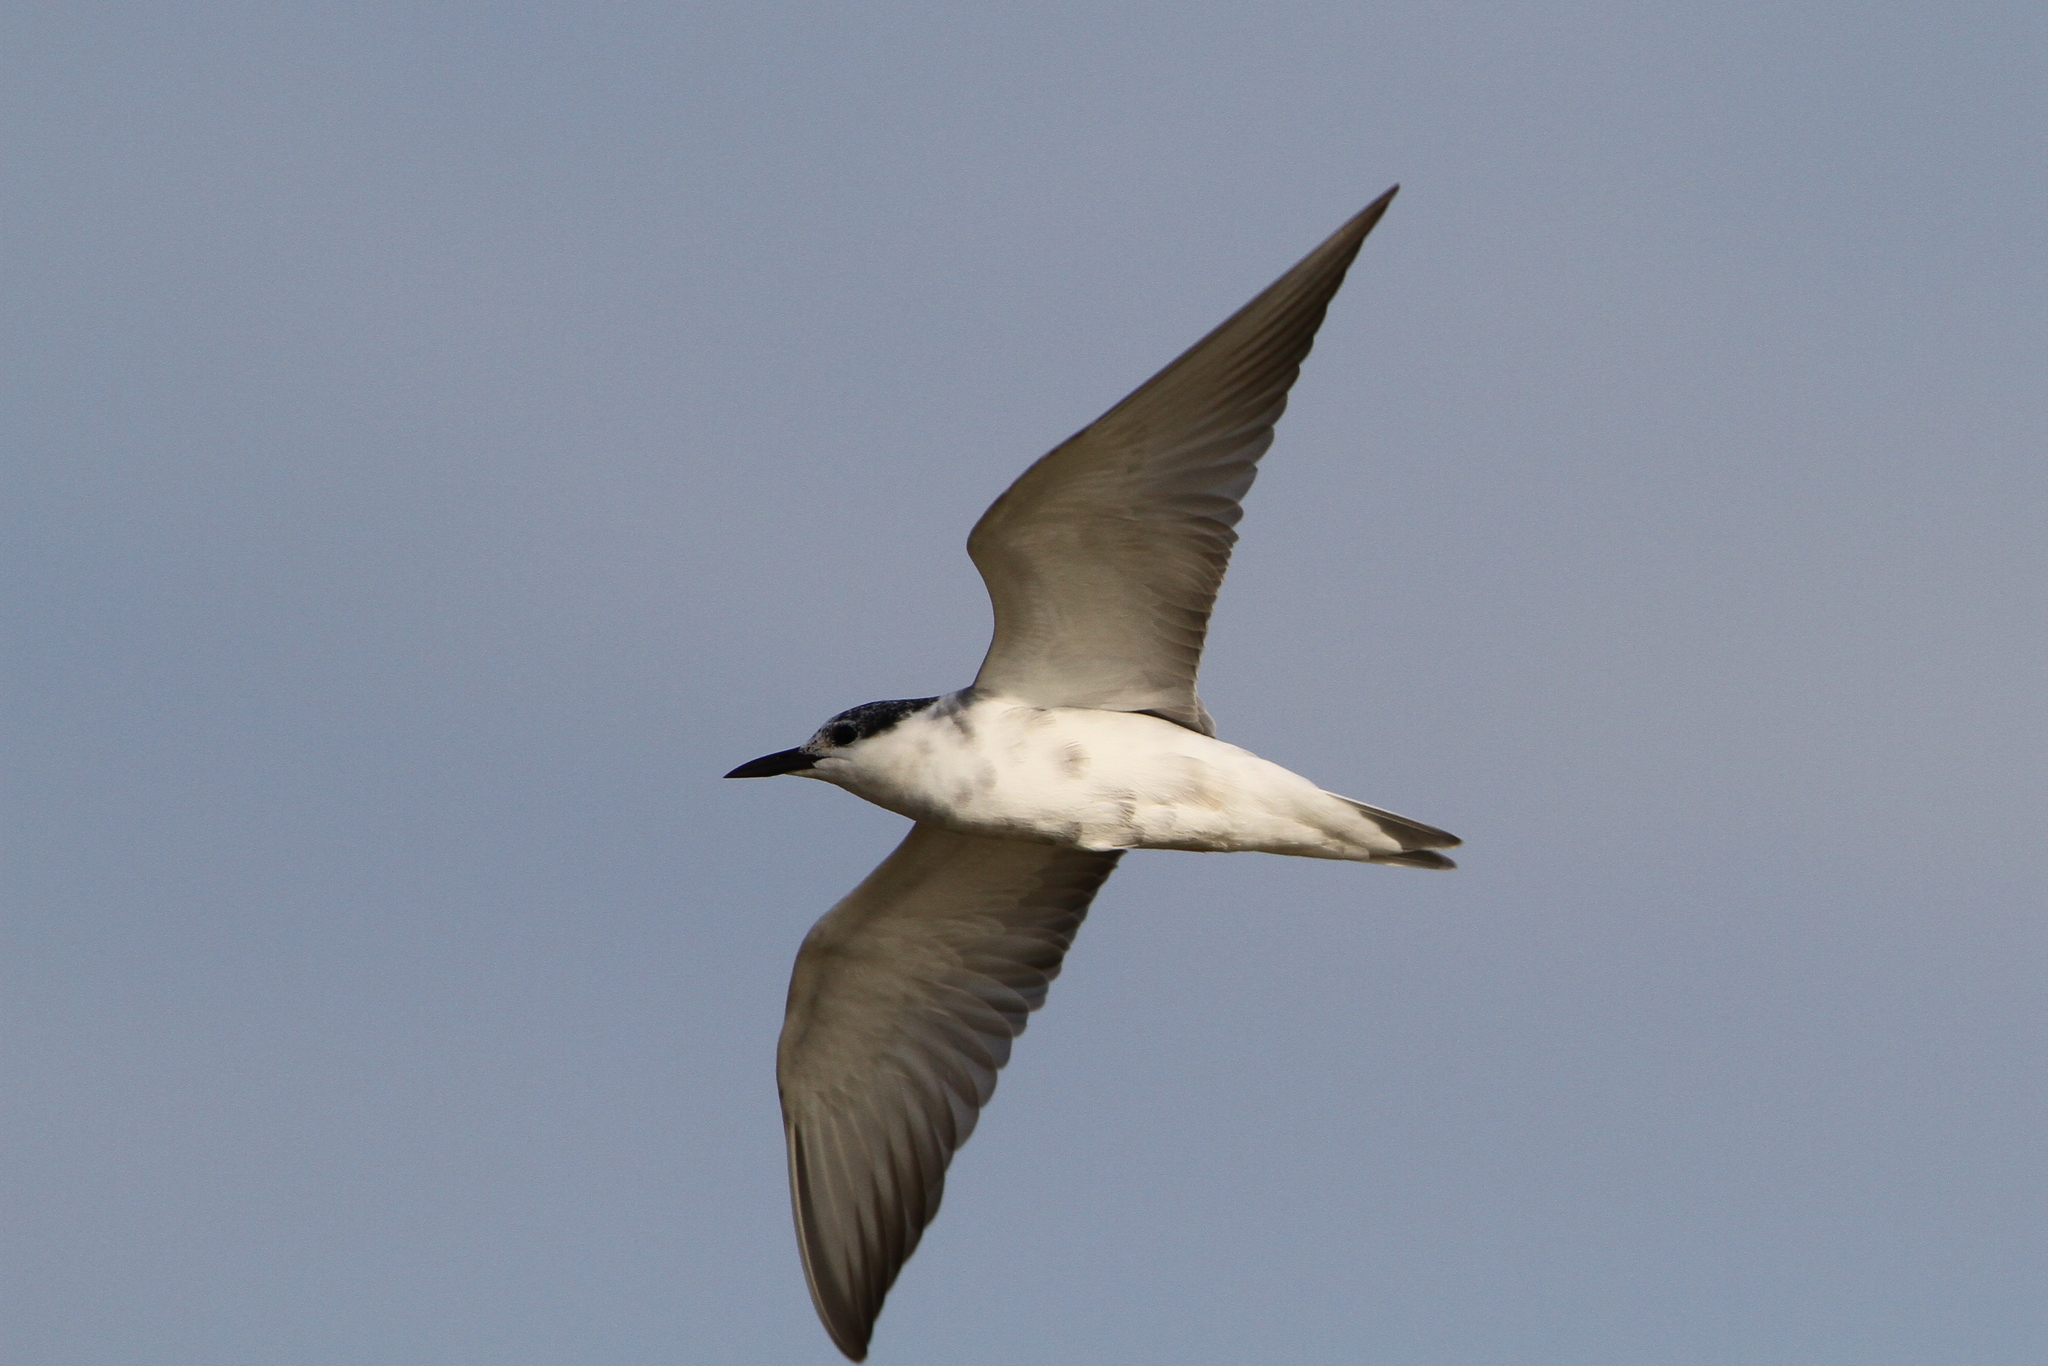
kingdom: Animalia
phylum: Chordata
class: Aves
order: Charadriiformes
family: Laridae
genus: Chlidonias
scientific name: Chlidonias hybrida
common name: Whiskered tern
